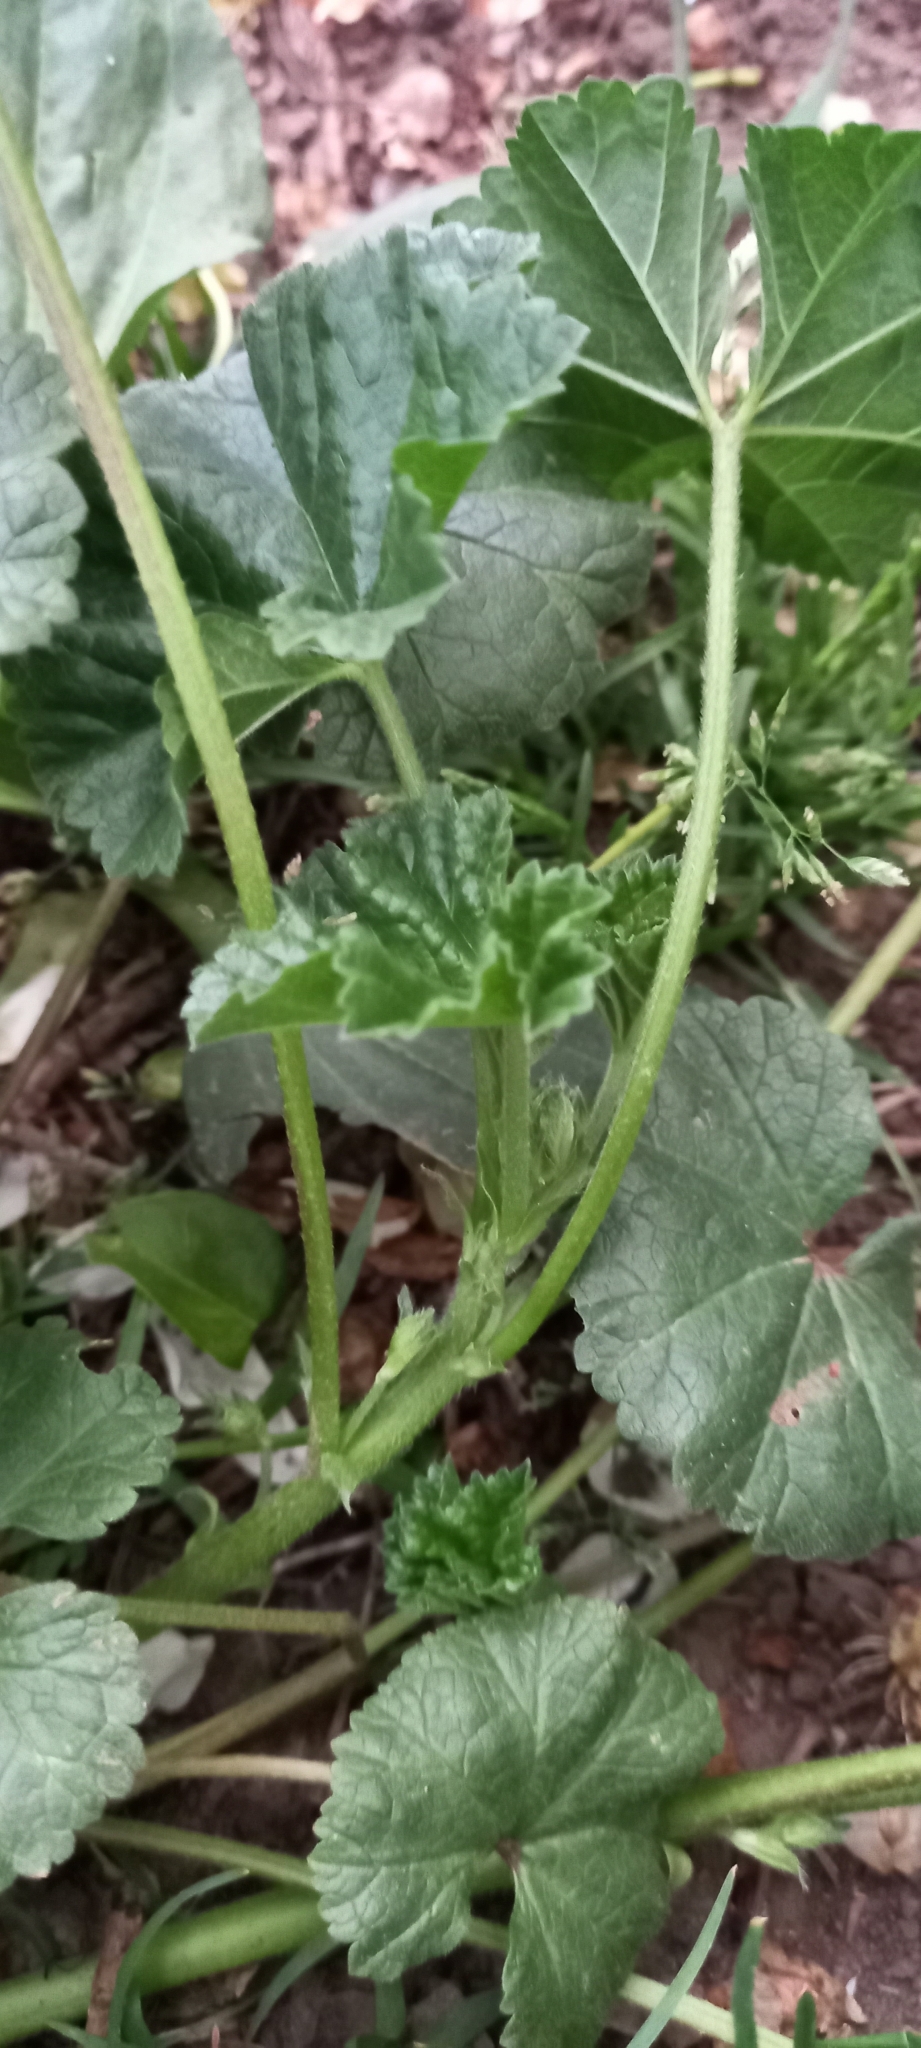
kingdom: Plantae
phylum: Tracheophyta
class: Magnoliopsida
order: Malvales
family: Malvaceae
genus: Malva
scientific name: Malva neglecta
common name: Common mallow
